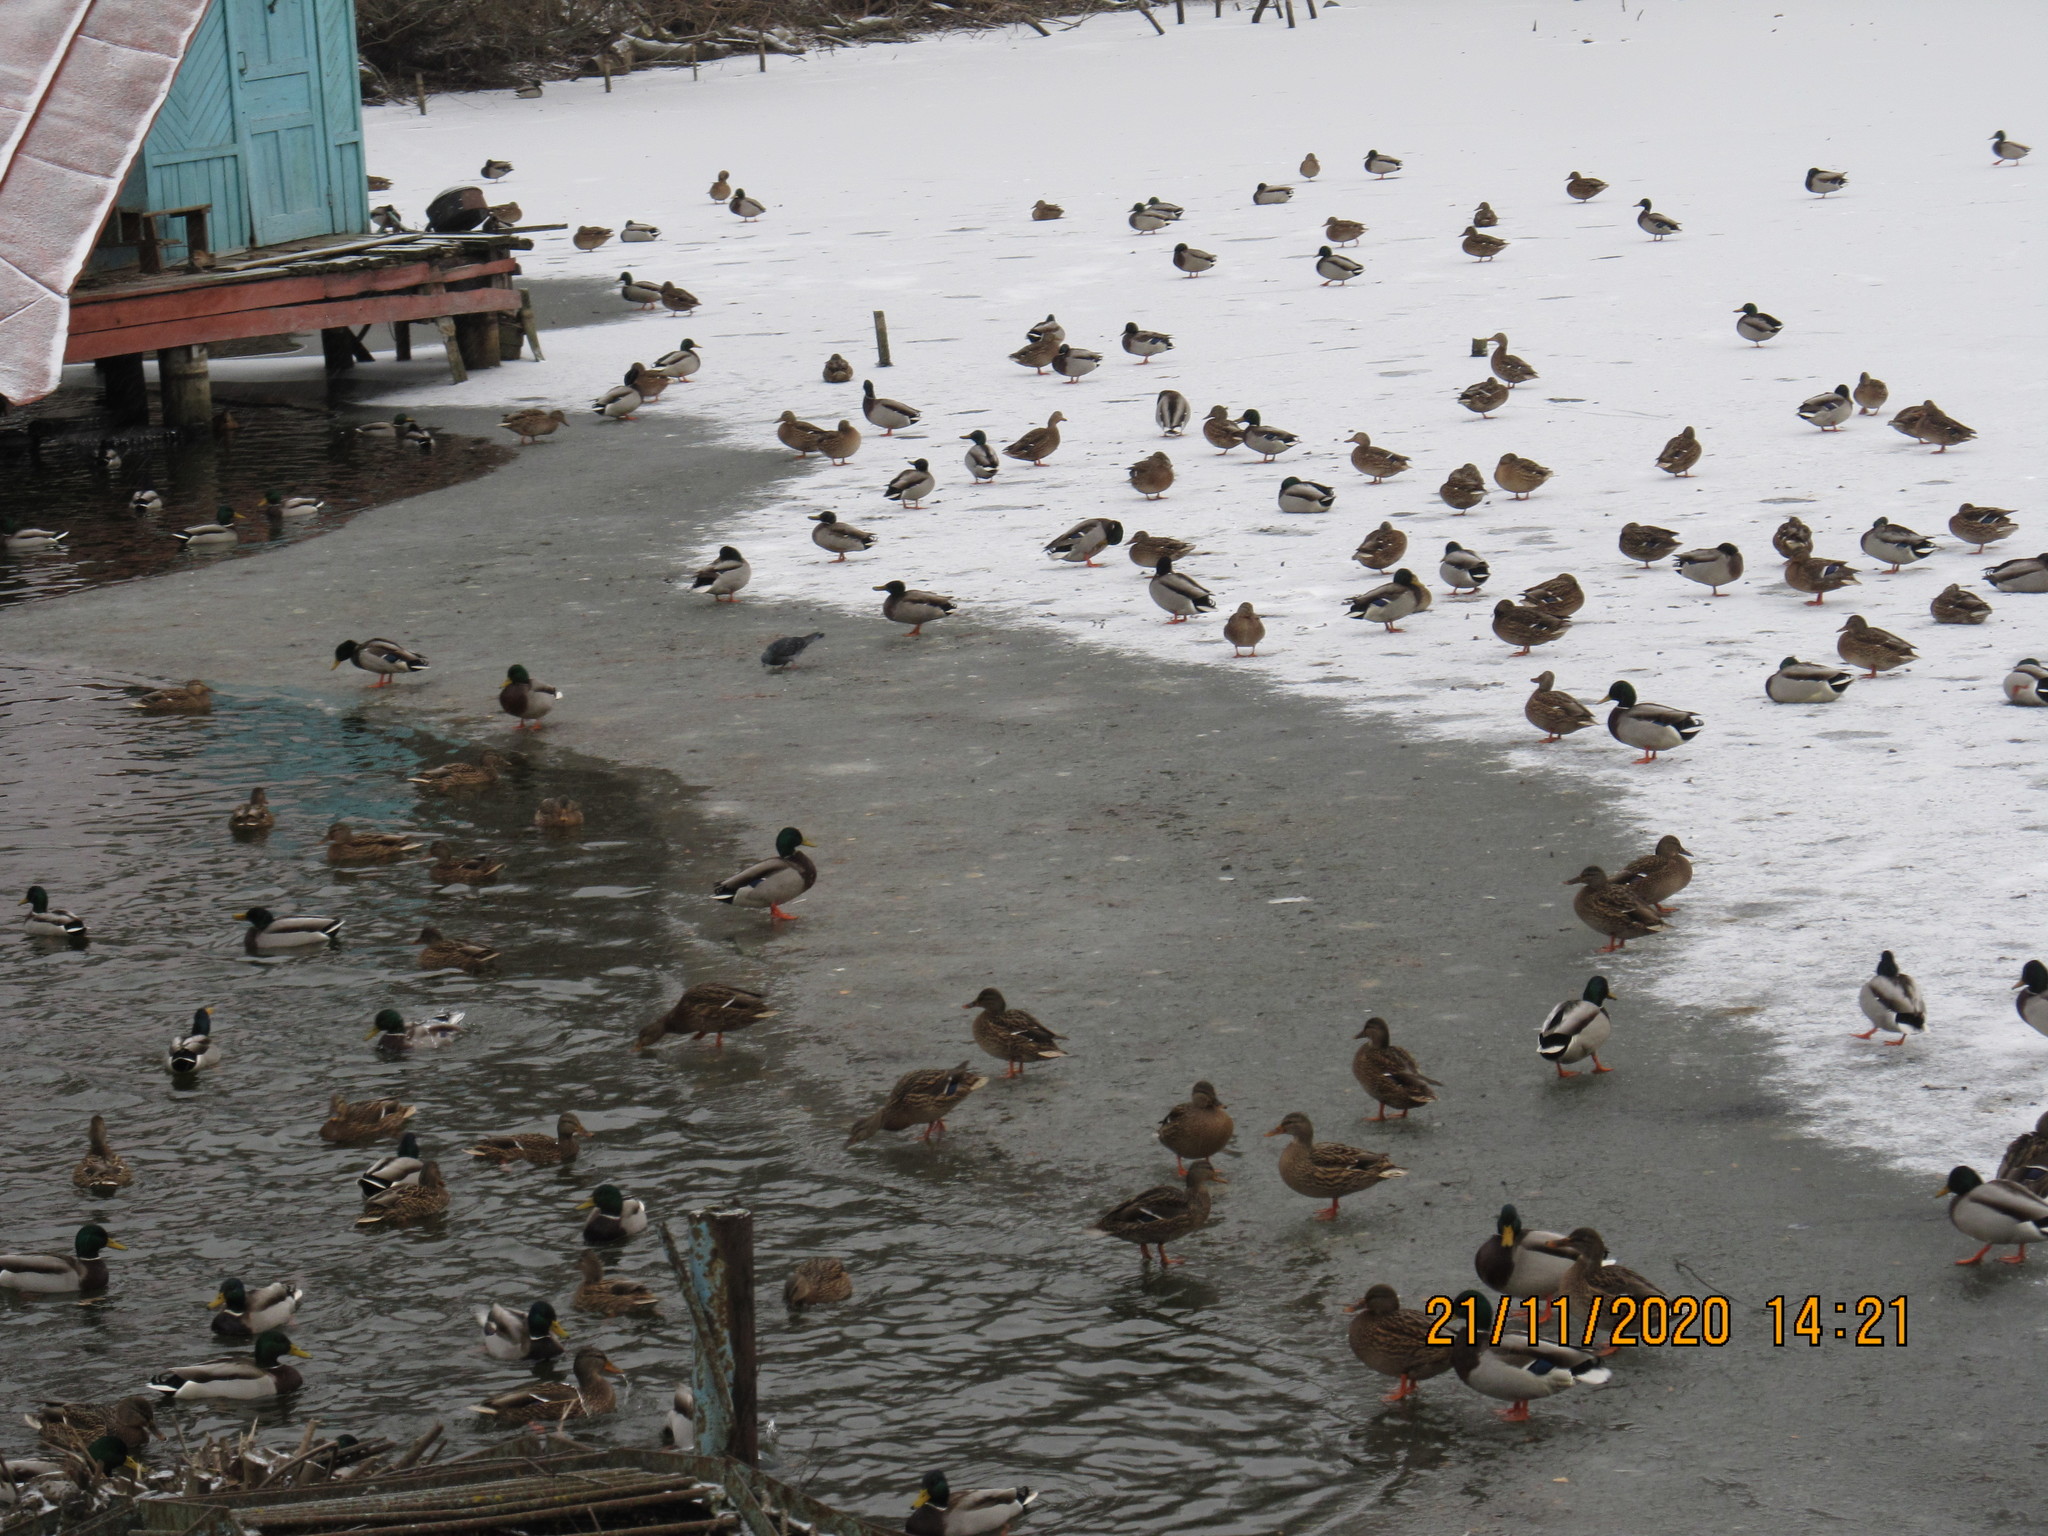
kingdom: Animalia
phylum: Chordata
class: Aves
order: Anseriformes
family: Anatidae
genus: Anas
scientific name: Anas platyrhynchos
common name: Mallard
